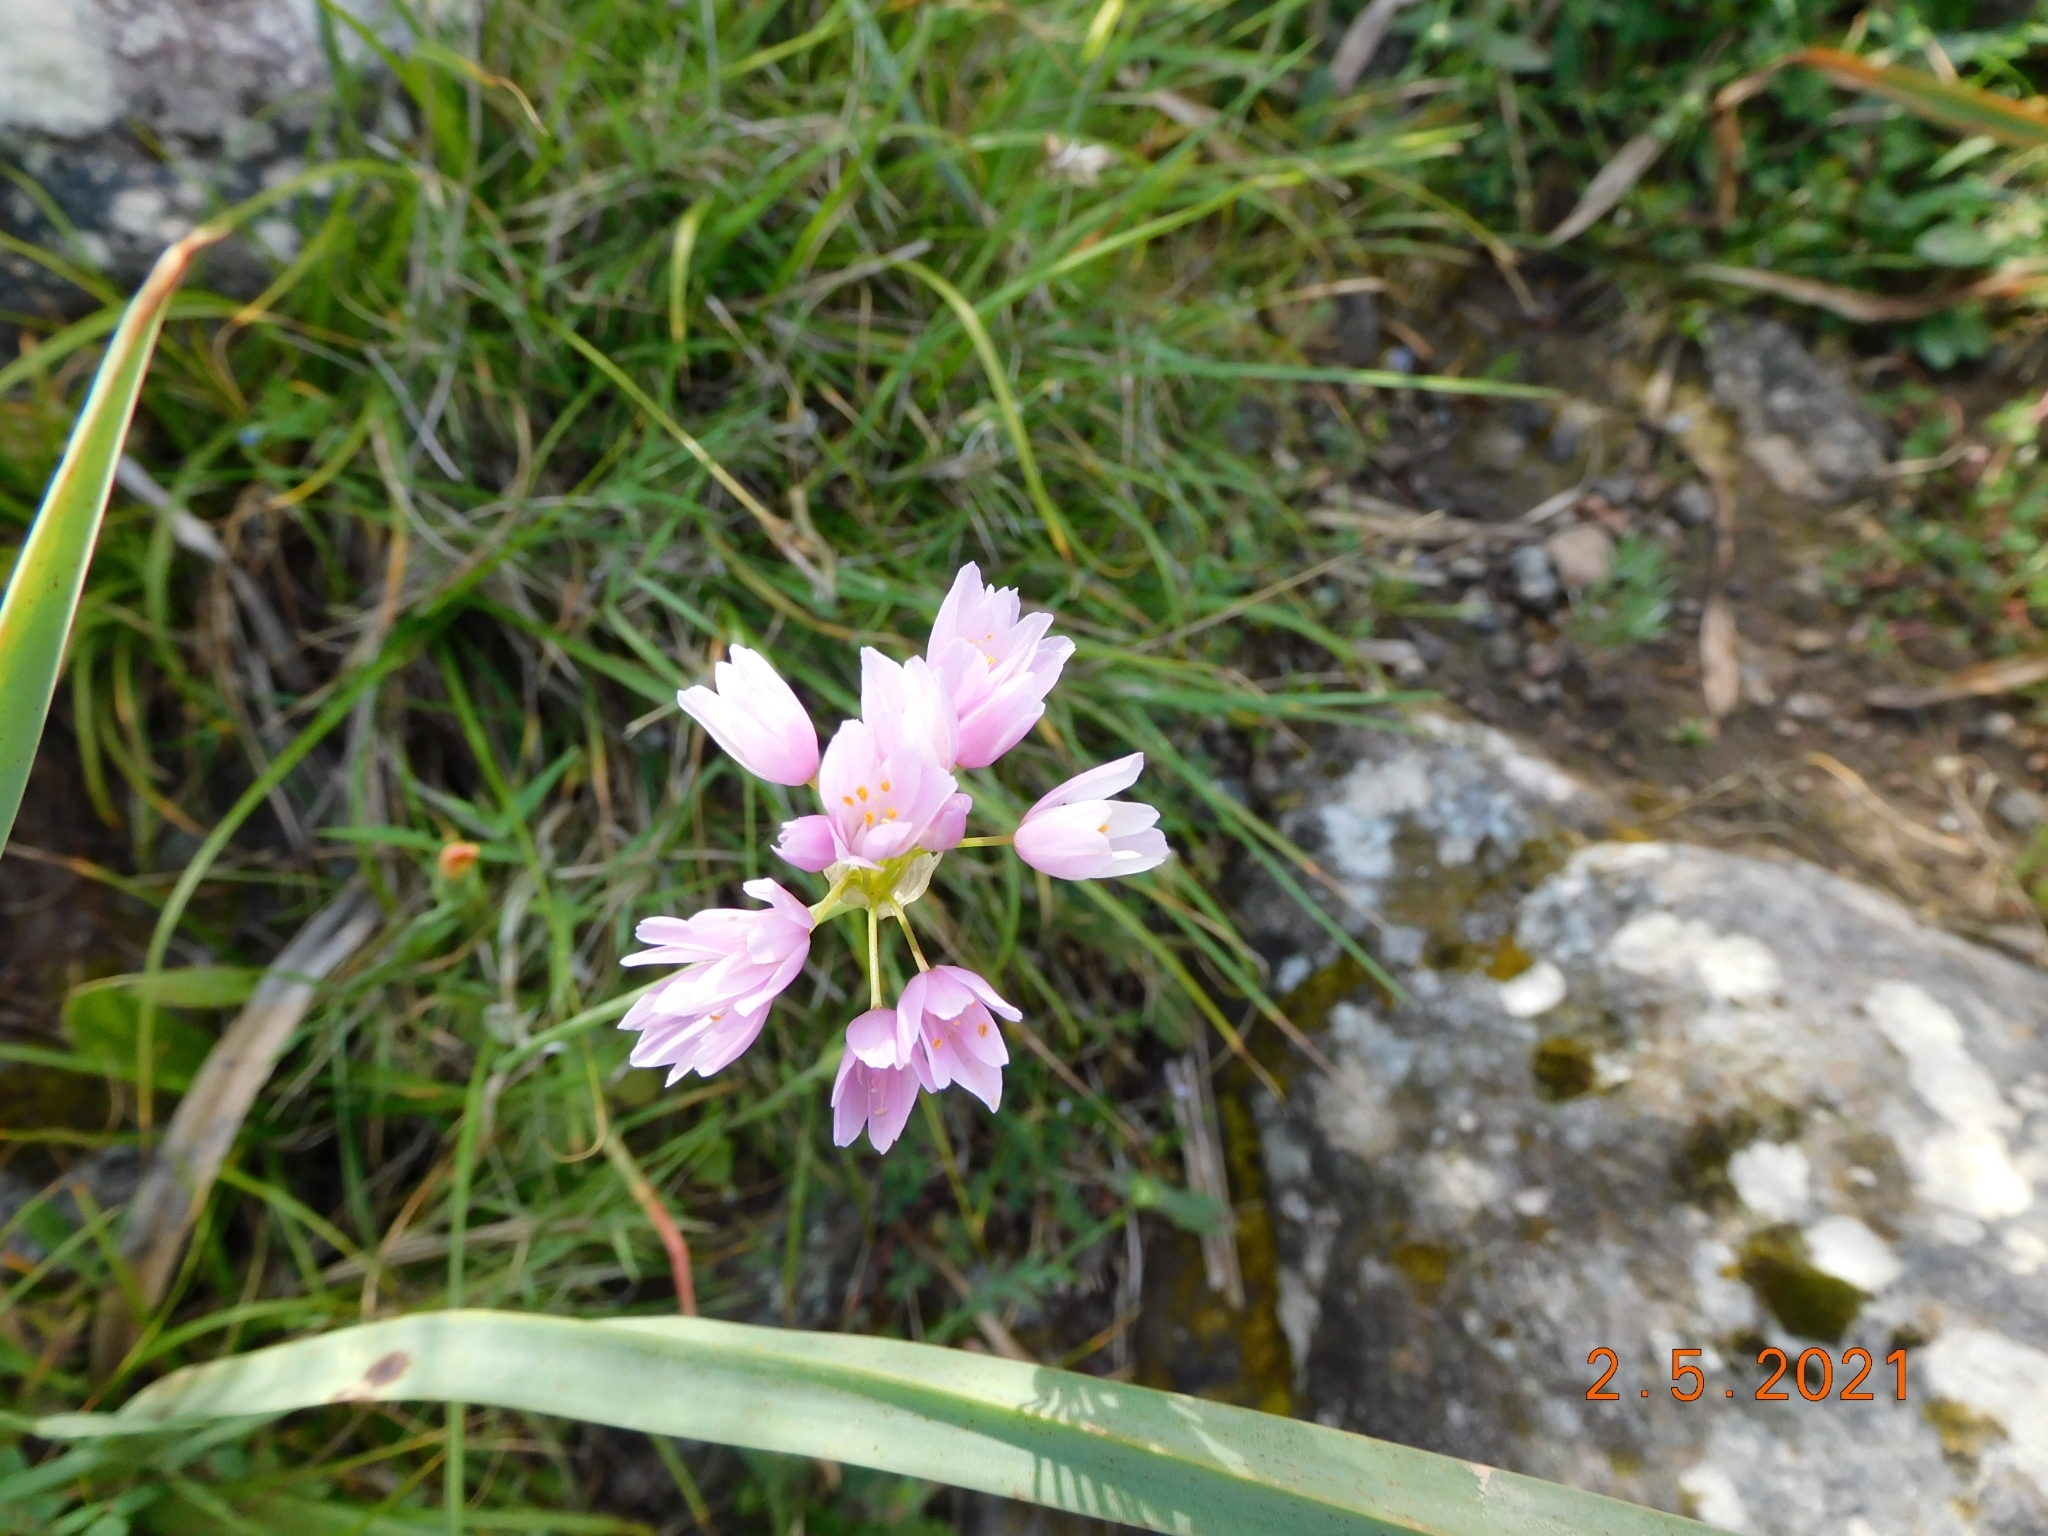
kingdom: Plantae
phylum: Tracheophyta
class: Liliopsida
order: Asparagales
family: Amaryllidaceae
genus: Allium
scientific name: Allium roseum
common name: Rosy garlic
